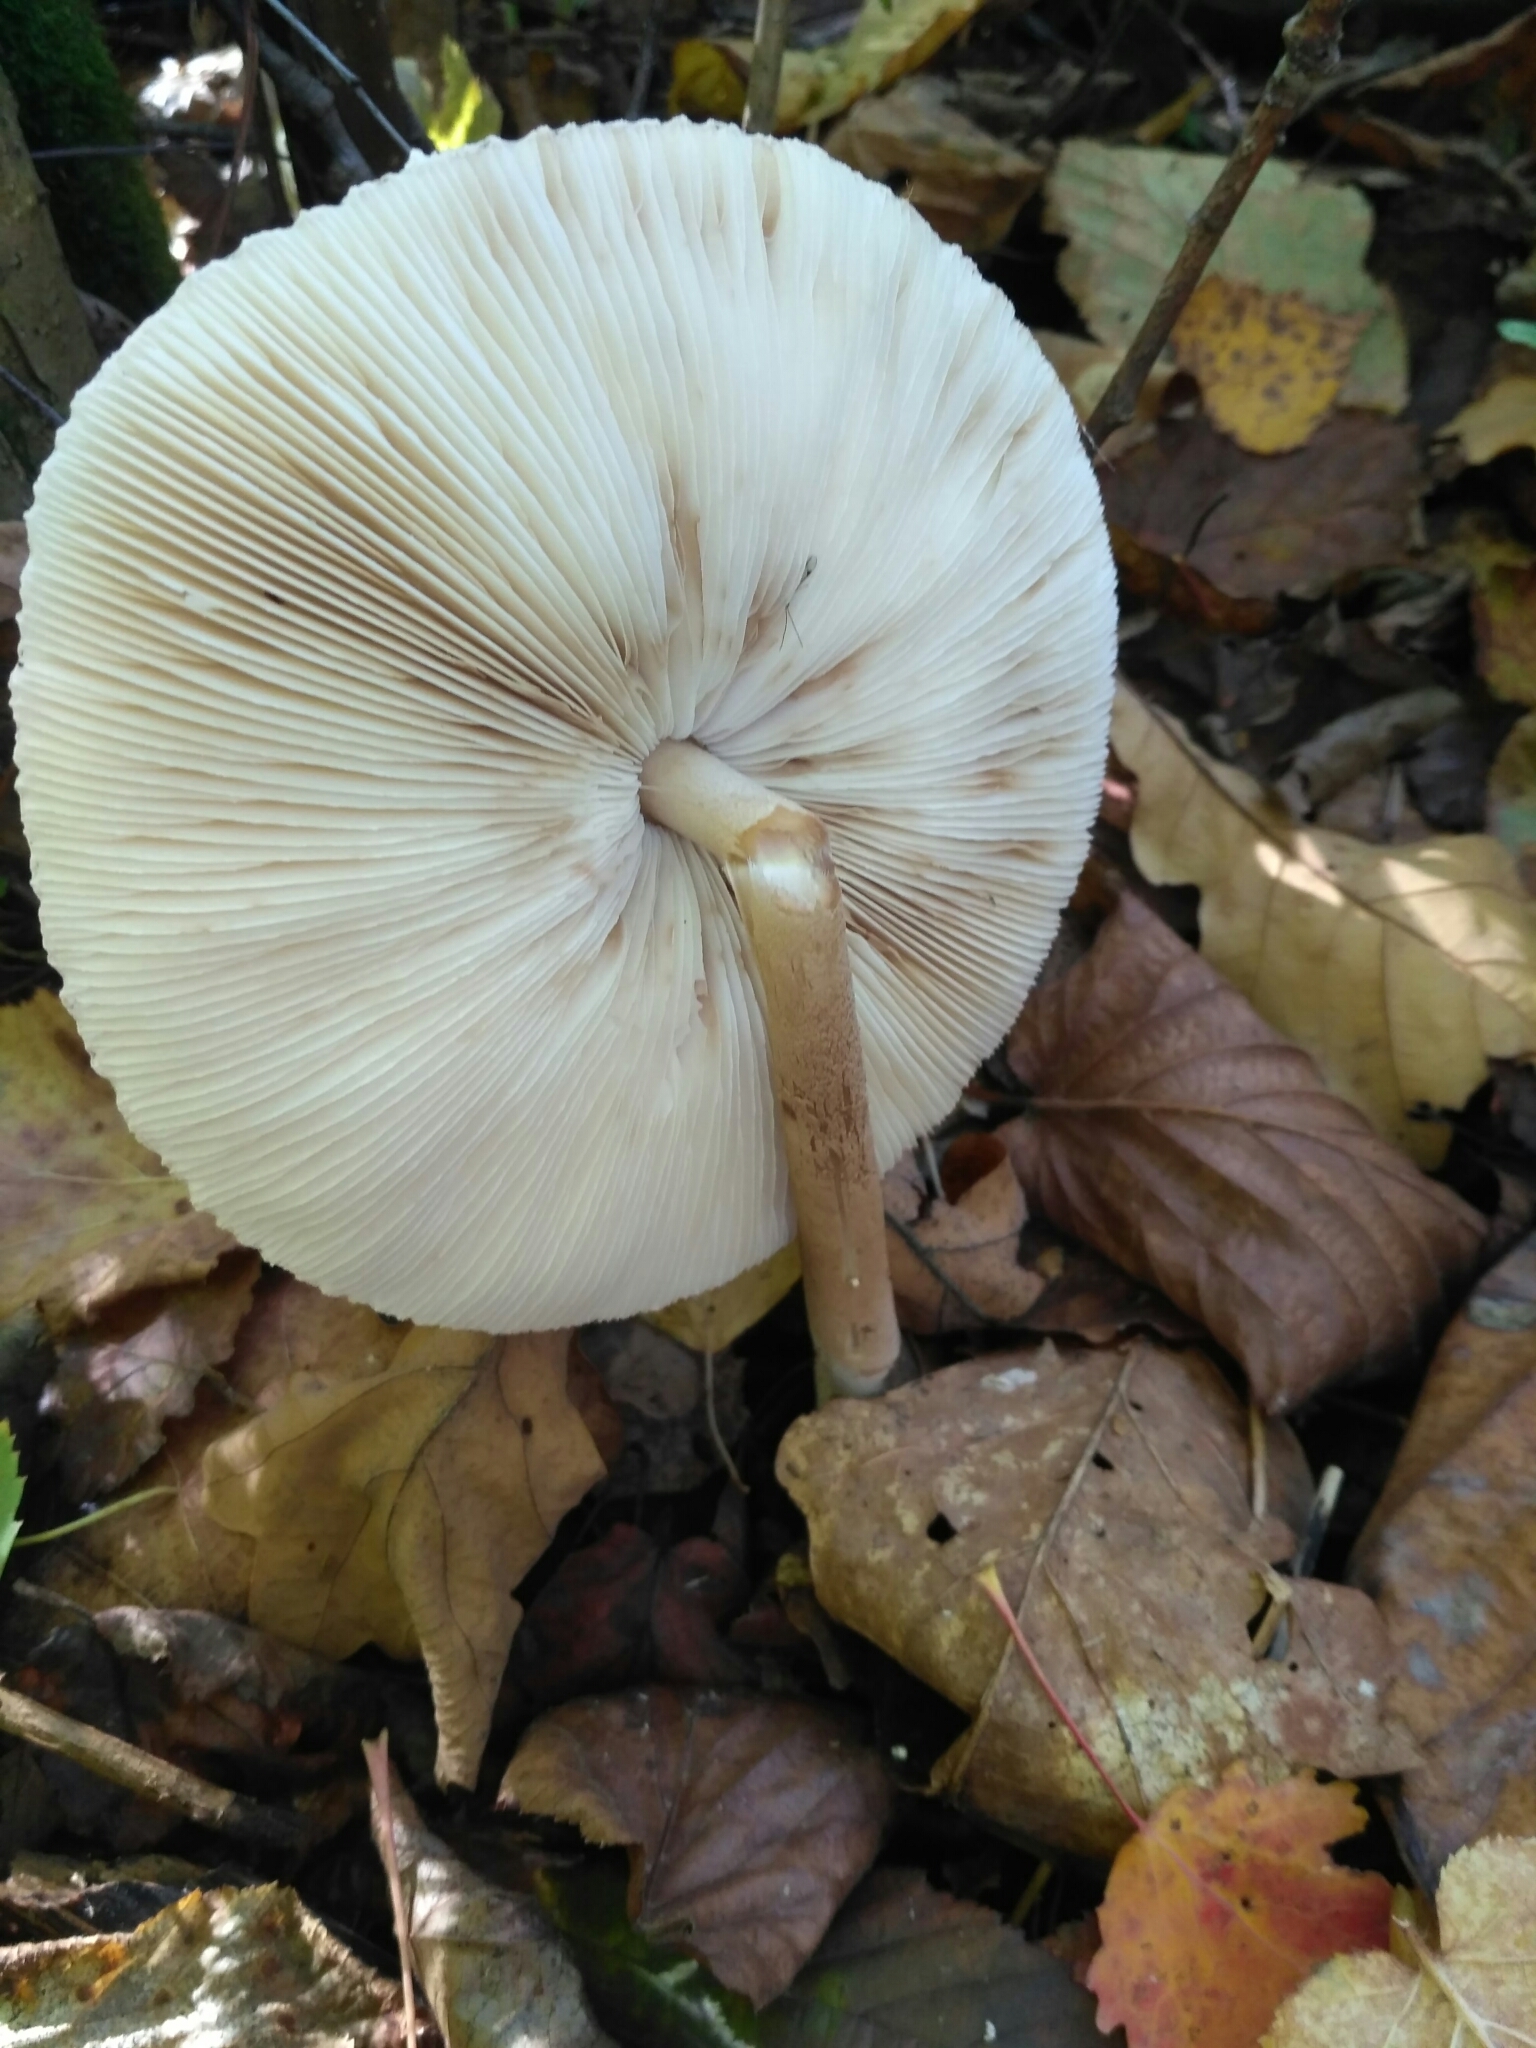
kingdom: Fungi
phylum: Basidiomycota
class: Agaricomycetes
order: Agaricales
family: Agaricaceae
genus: Macrolepiota
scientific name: Macrolepiota mastoidea
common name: Slender parasol
